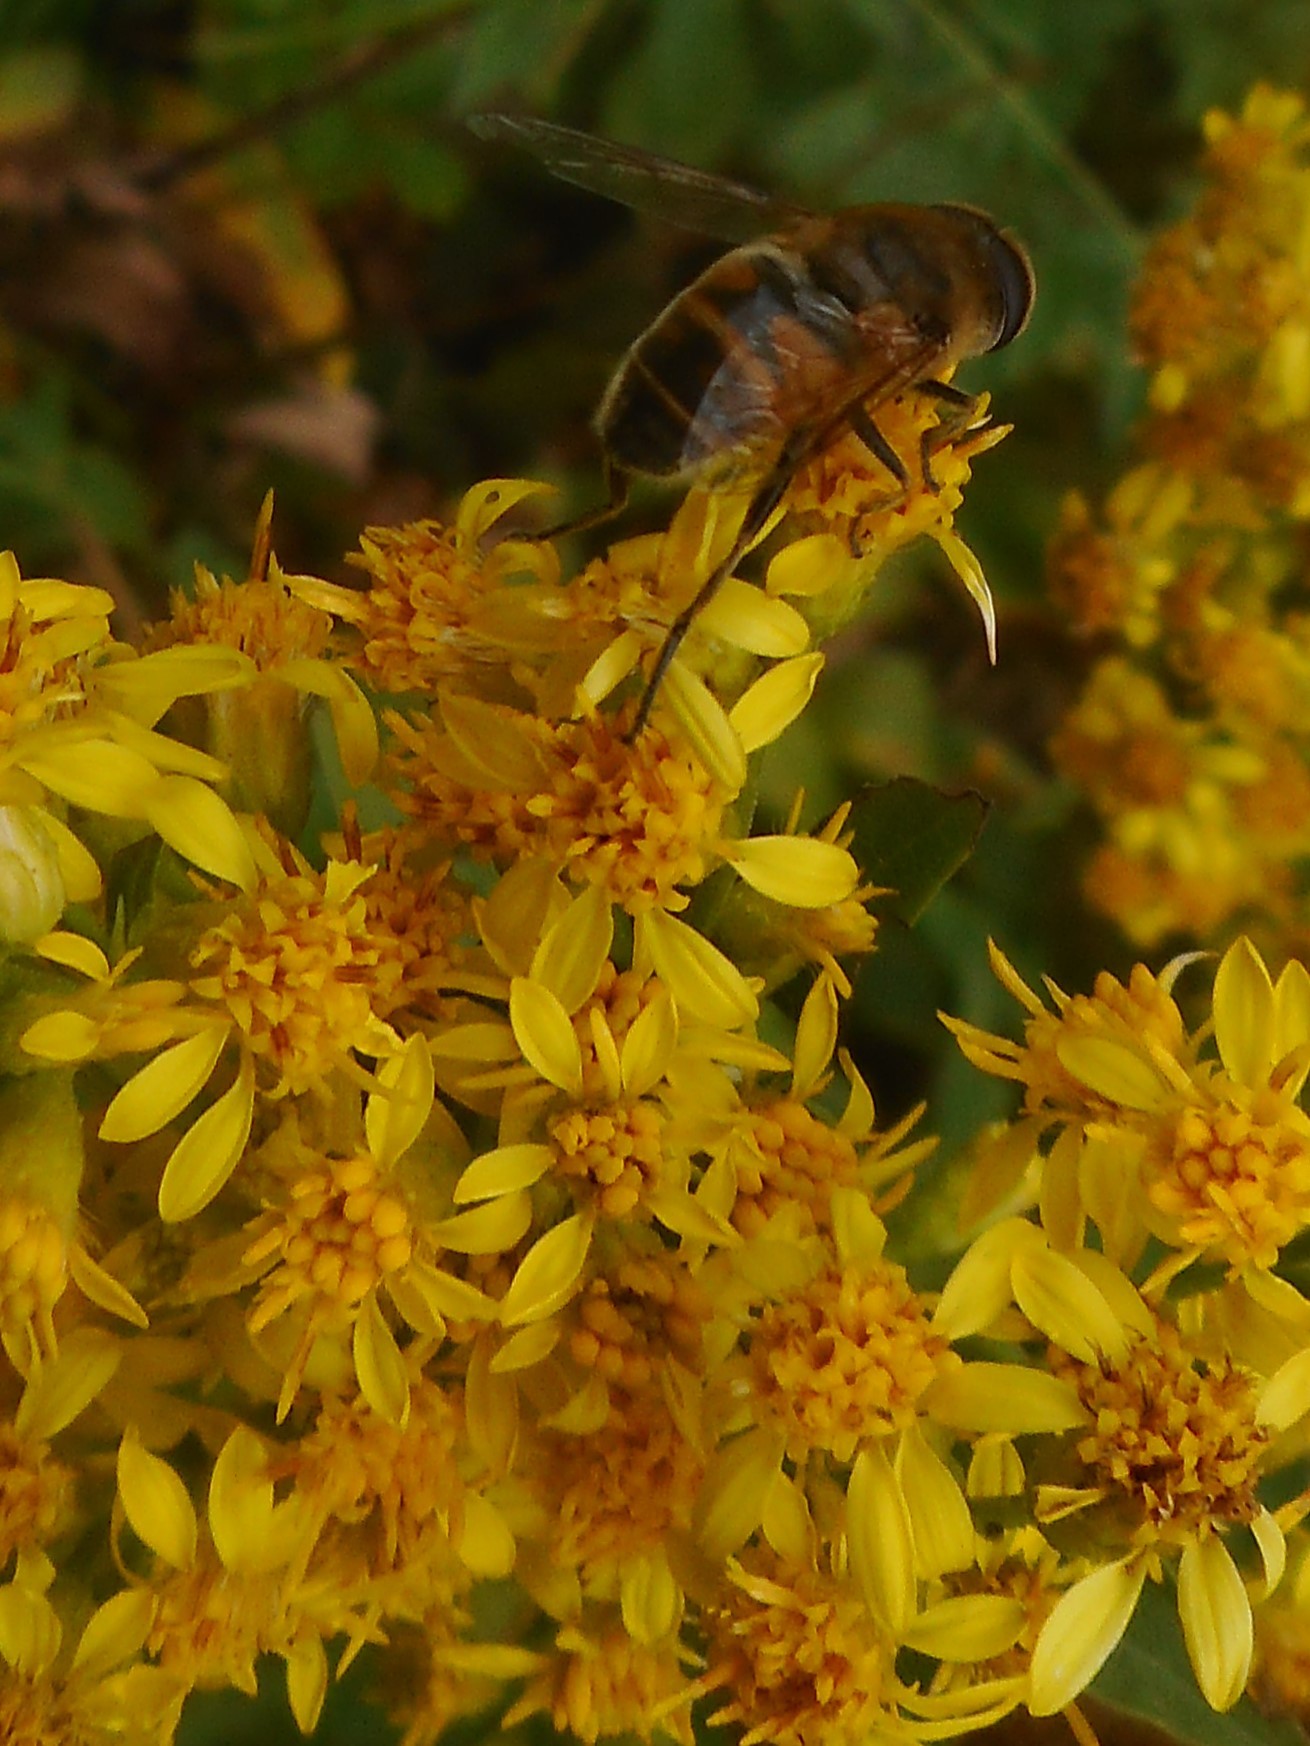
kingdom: Animalia
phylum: Arthropoda
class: Insecta
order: Diptera
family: Syrphidae
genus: Eristalis
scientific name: Eristalis tenax
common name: Drone fly
